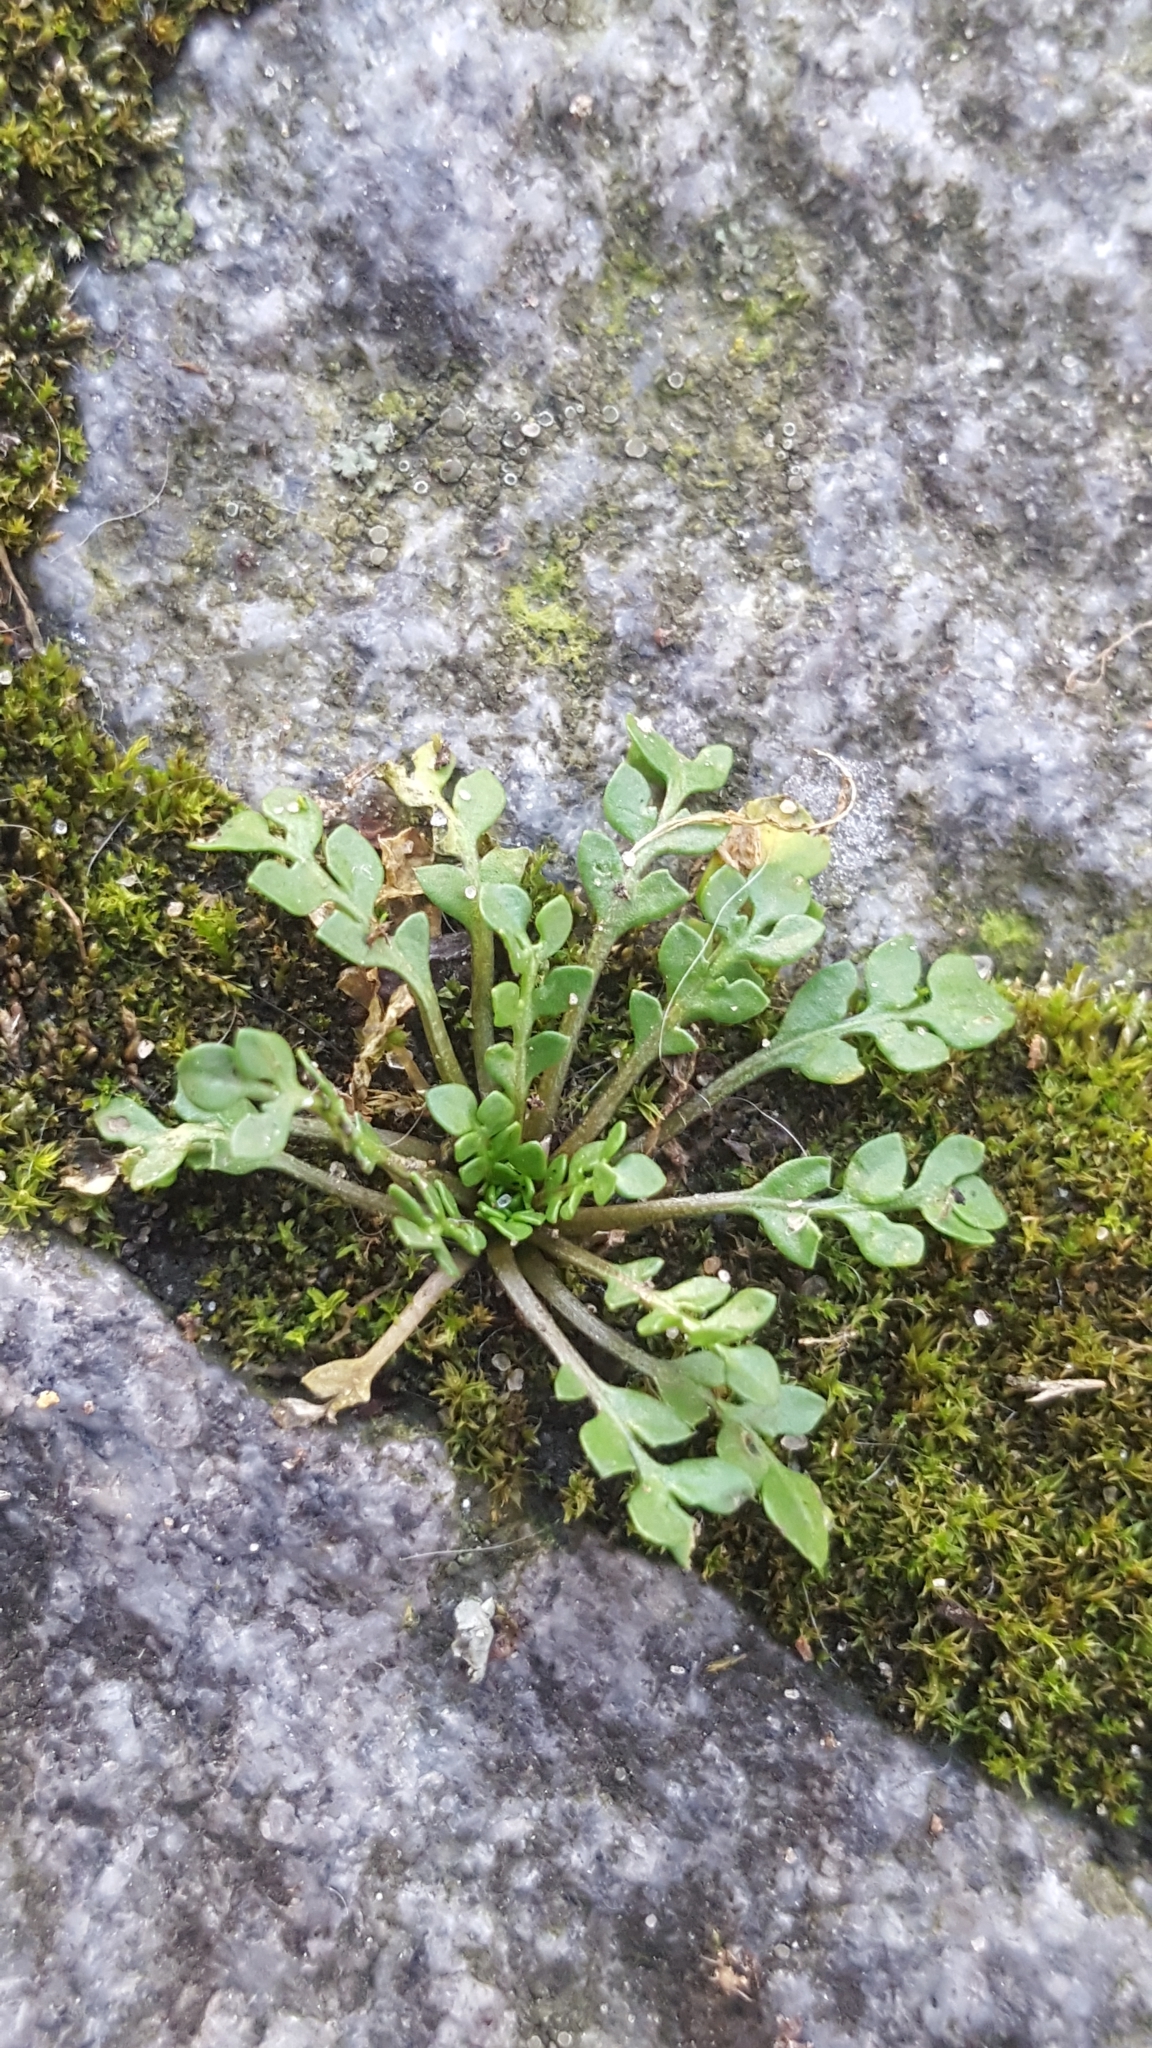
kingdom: Plantae
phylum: Tracheophyta
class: Magnoliopsida
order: Brassicales
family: Brassicaceae
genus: Capsella
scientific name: Capsella bursa-pastoris
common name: Shepherd's purse
